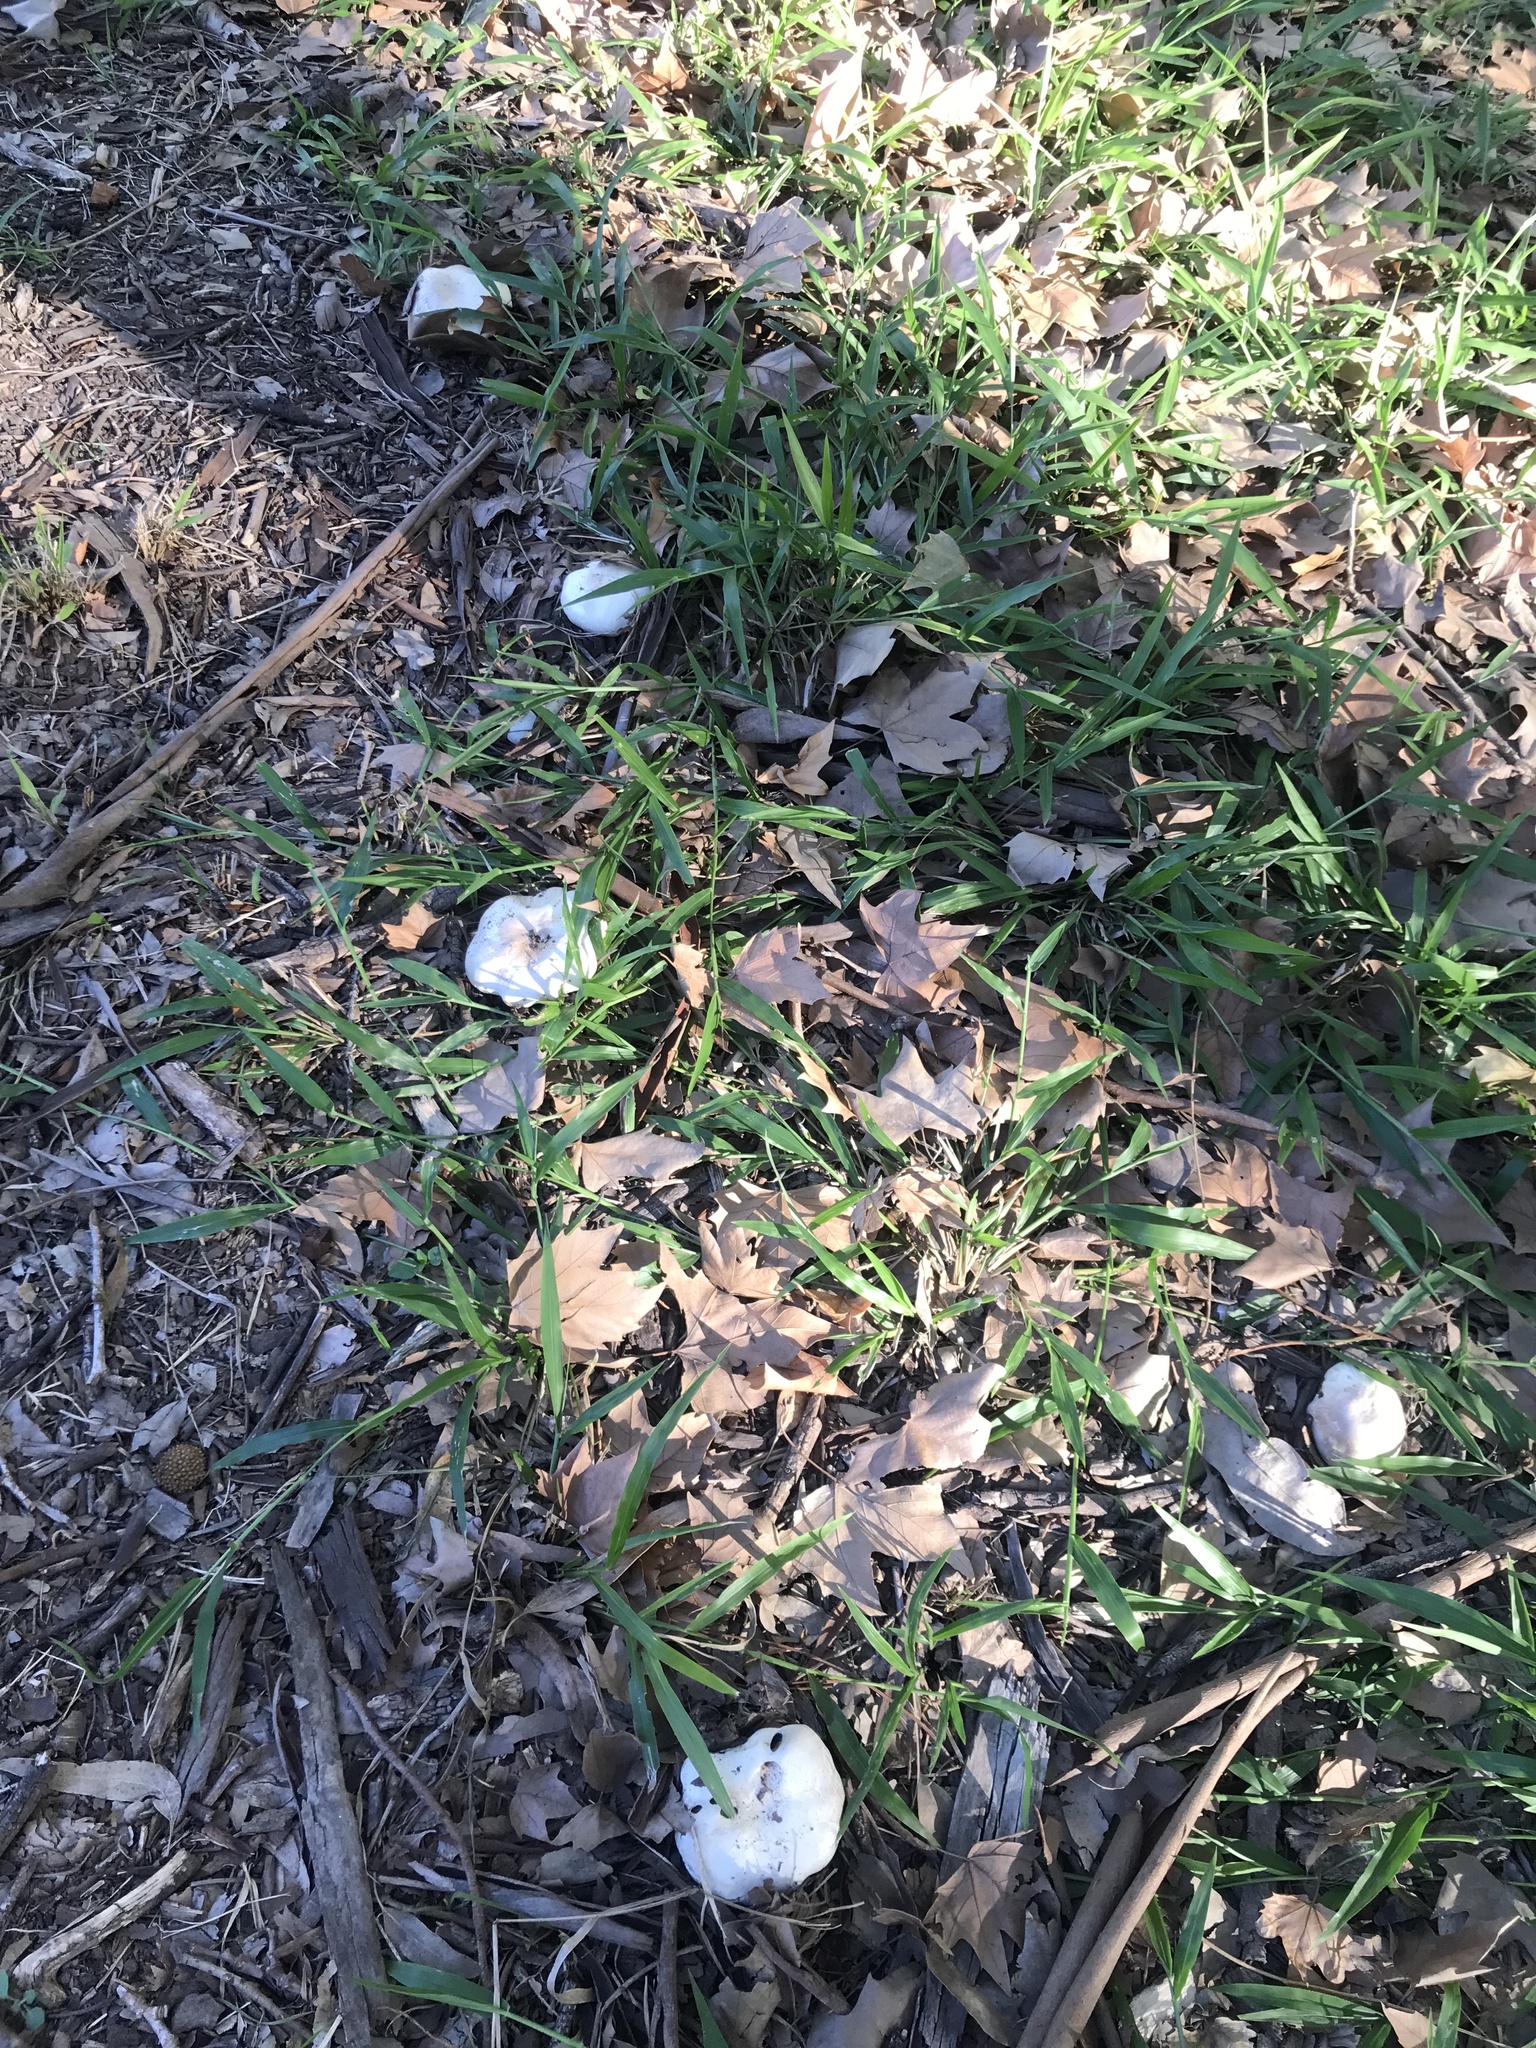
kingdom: Fungi
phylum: Basidiomycota
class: Agaricomycetes
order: Agaricales
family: Agaricaceae
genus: Agaricus
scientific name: Agaricus xanthodermus
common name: Yellow stainer
